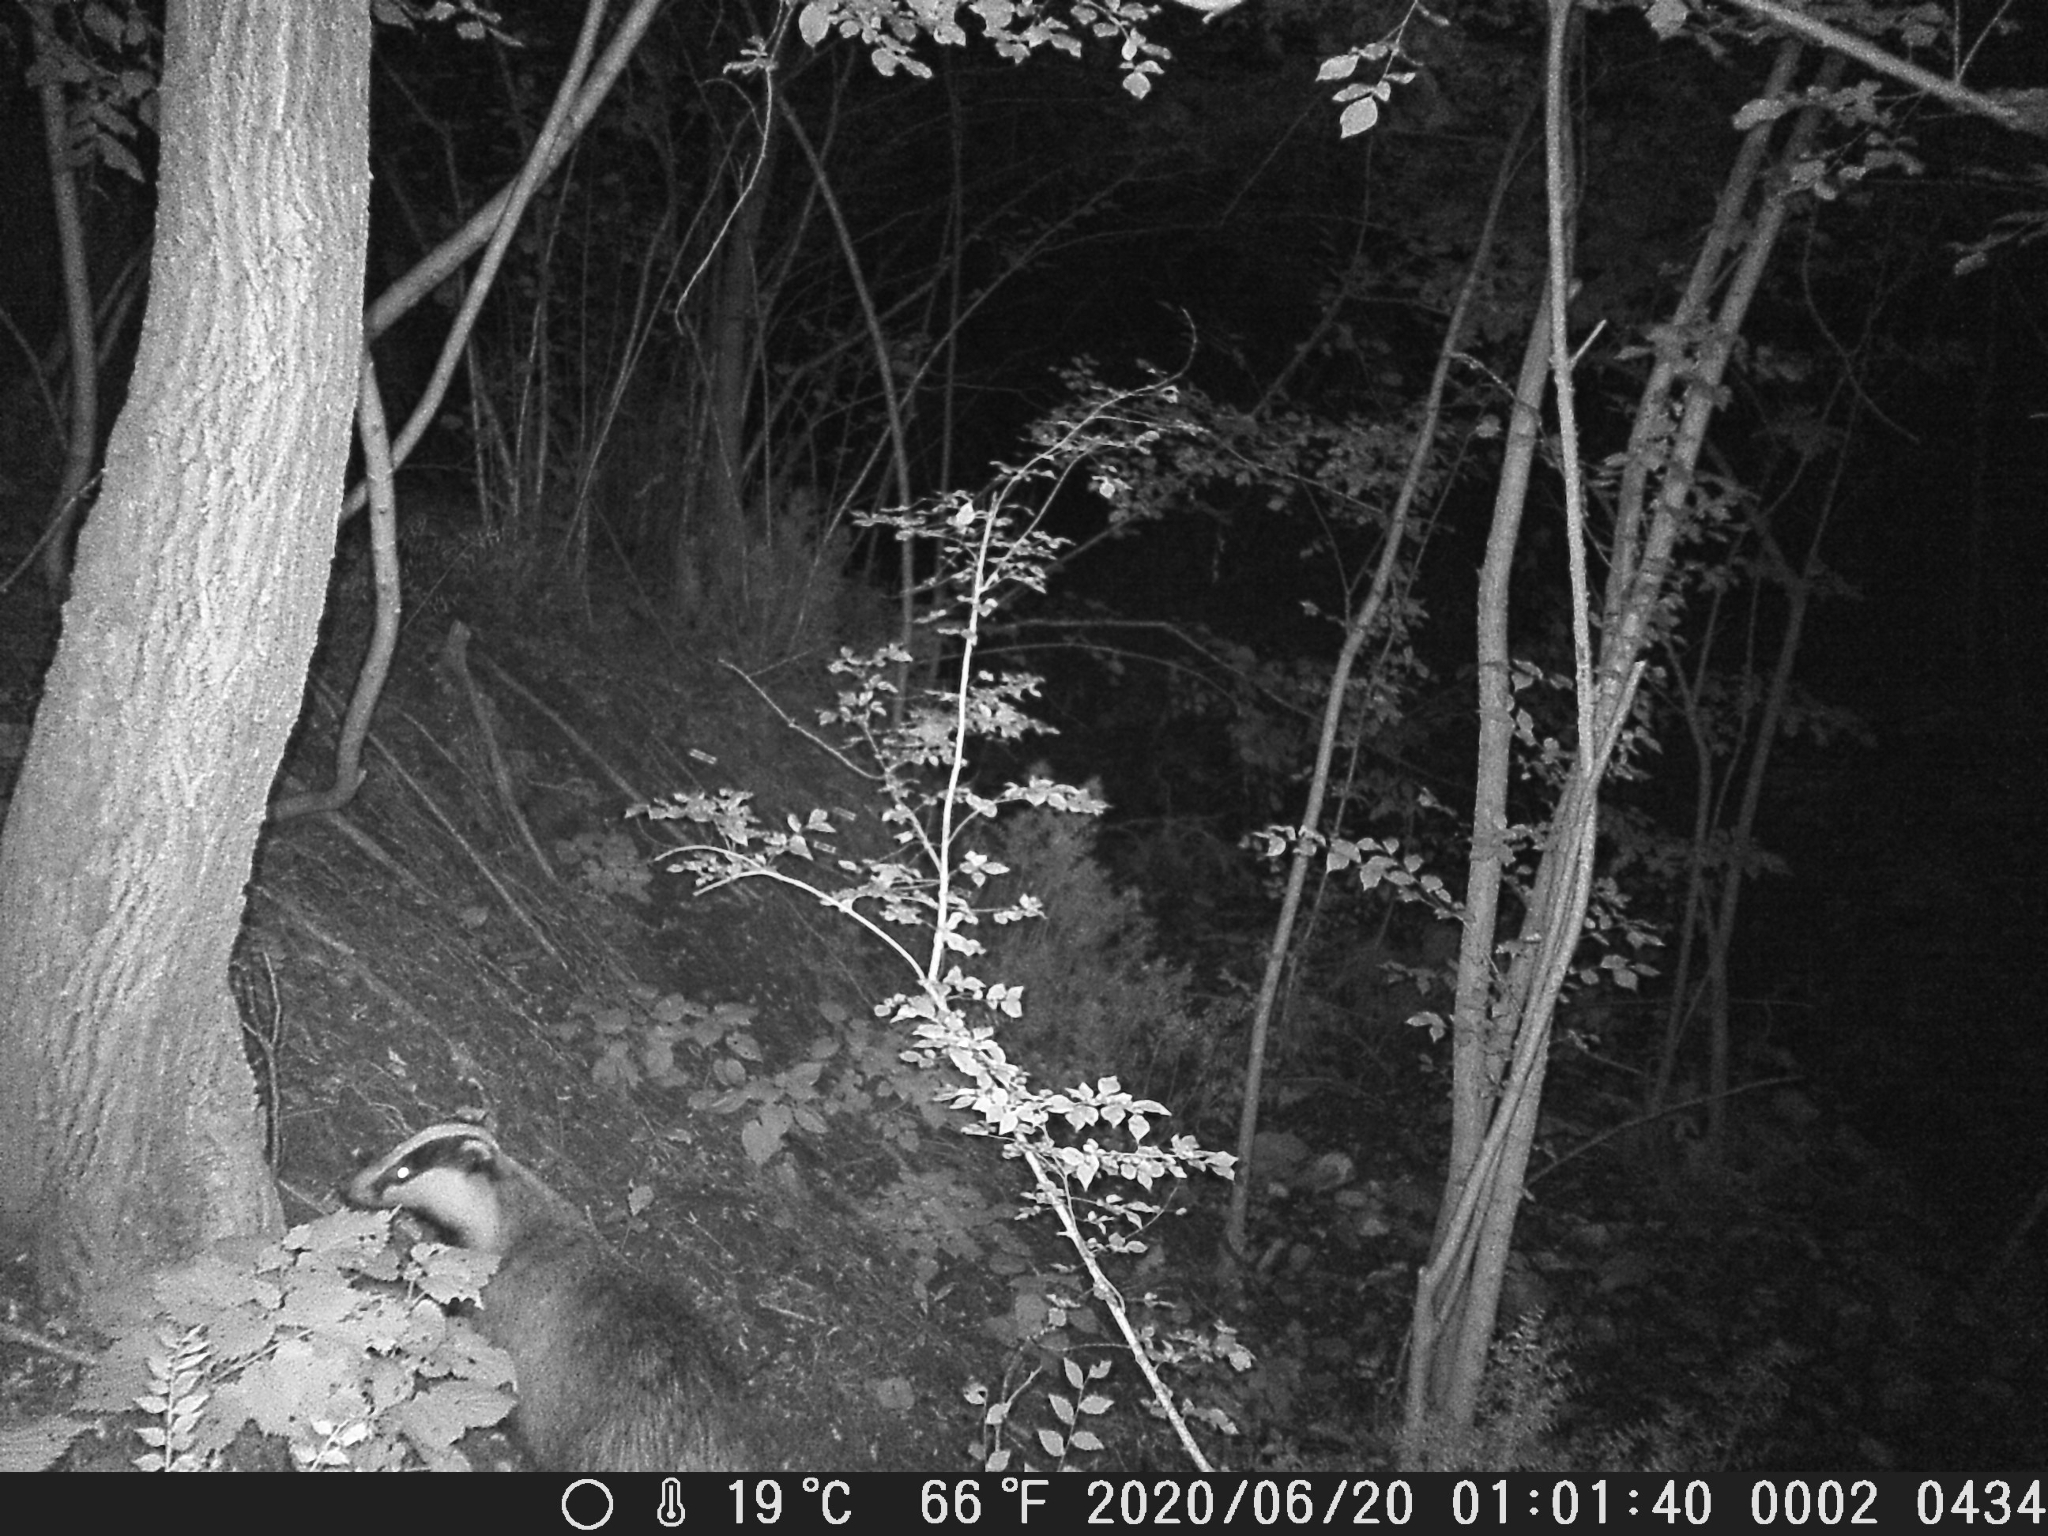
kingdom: Animalia
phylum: Chordata
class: Mammalia
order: Carnivora
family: Mustelidae
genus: Meles
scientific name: Meles meles
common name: Eurasian badger
